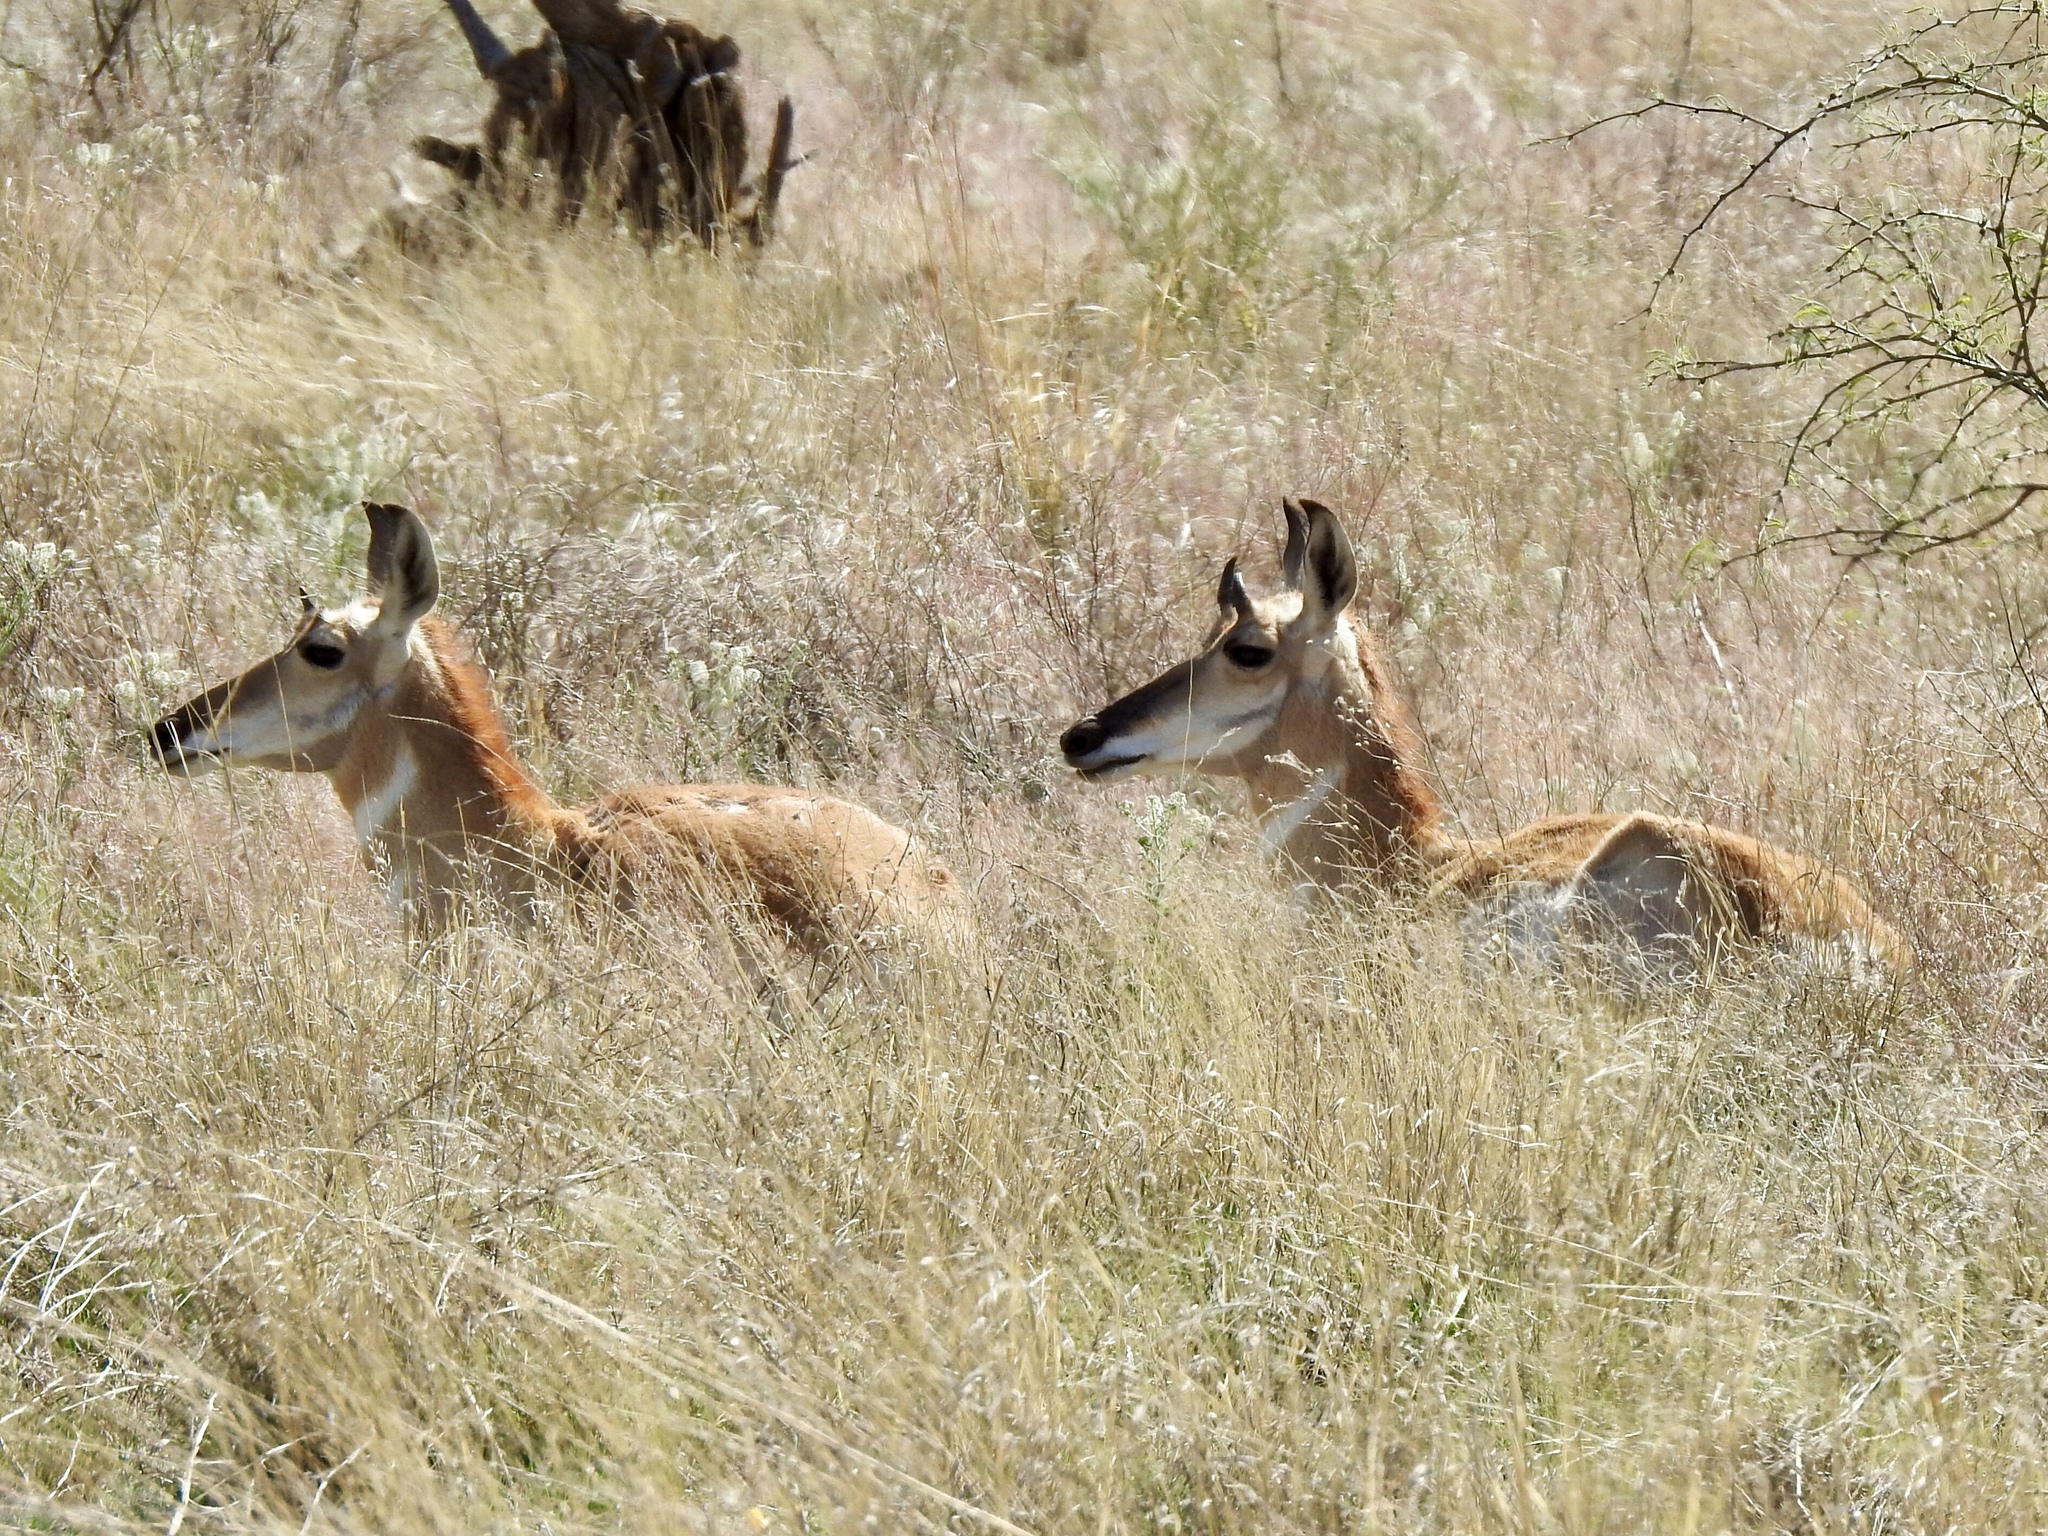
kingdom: Animalia
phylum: Chordata
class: Mammalia
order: Artiodactyla
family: Antilocapridae
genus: Antilocapra
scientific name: Antilocapra americana
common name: Pronghorn
